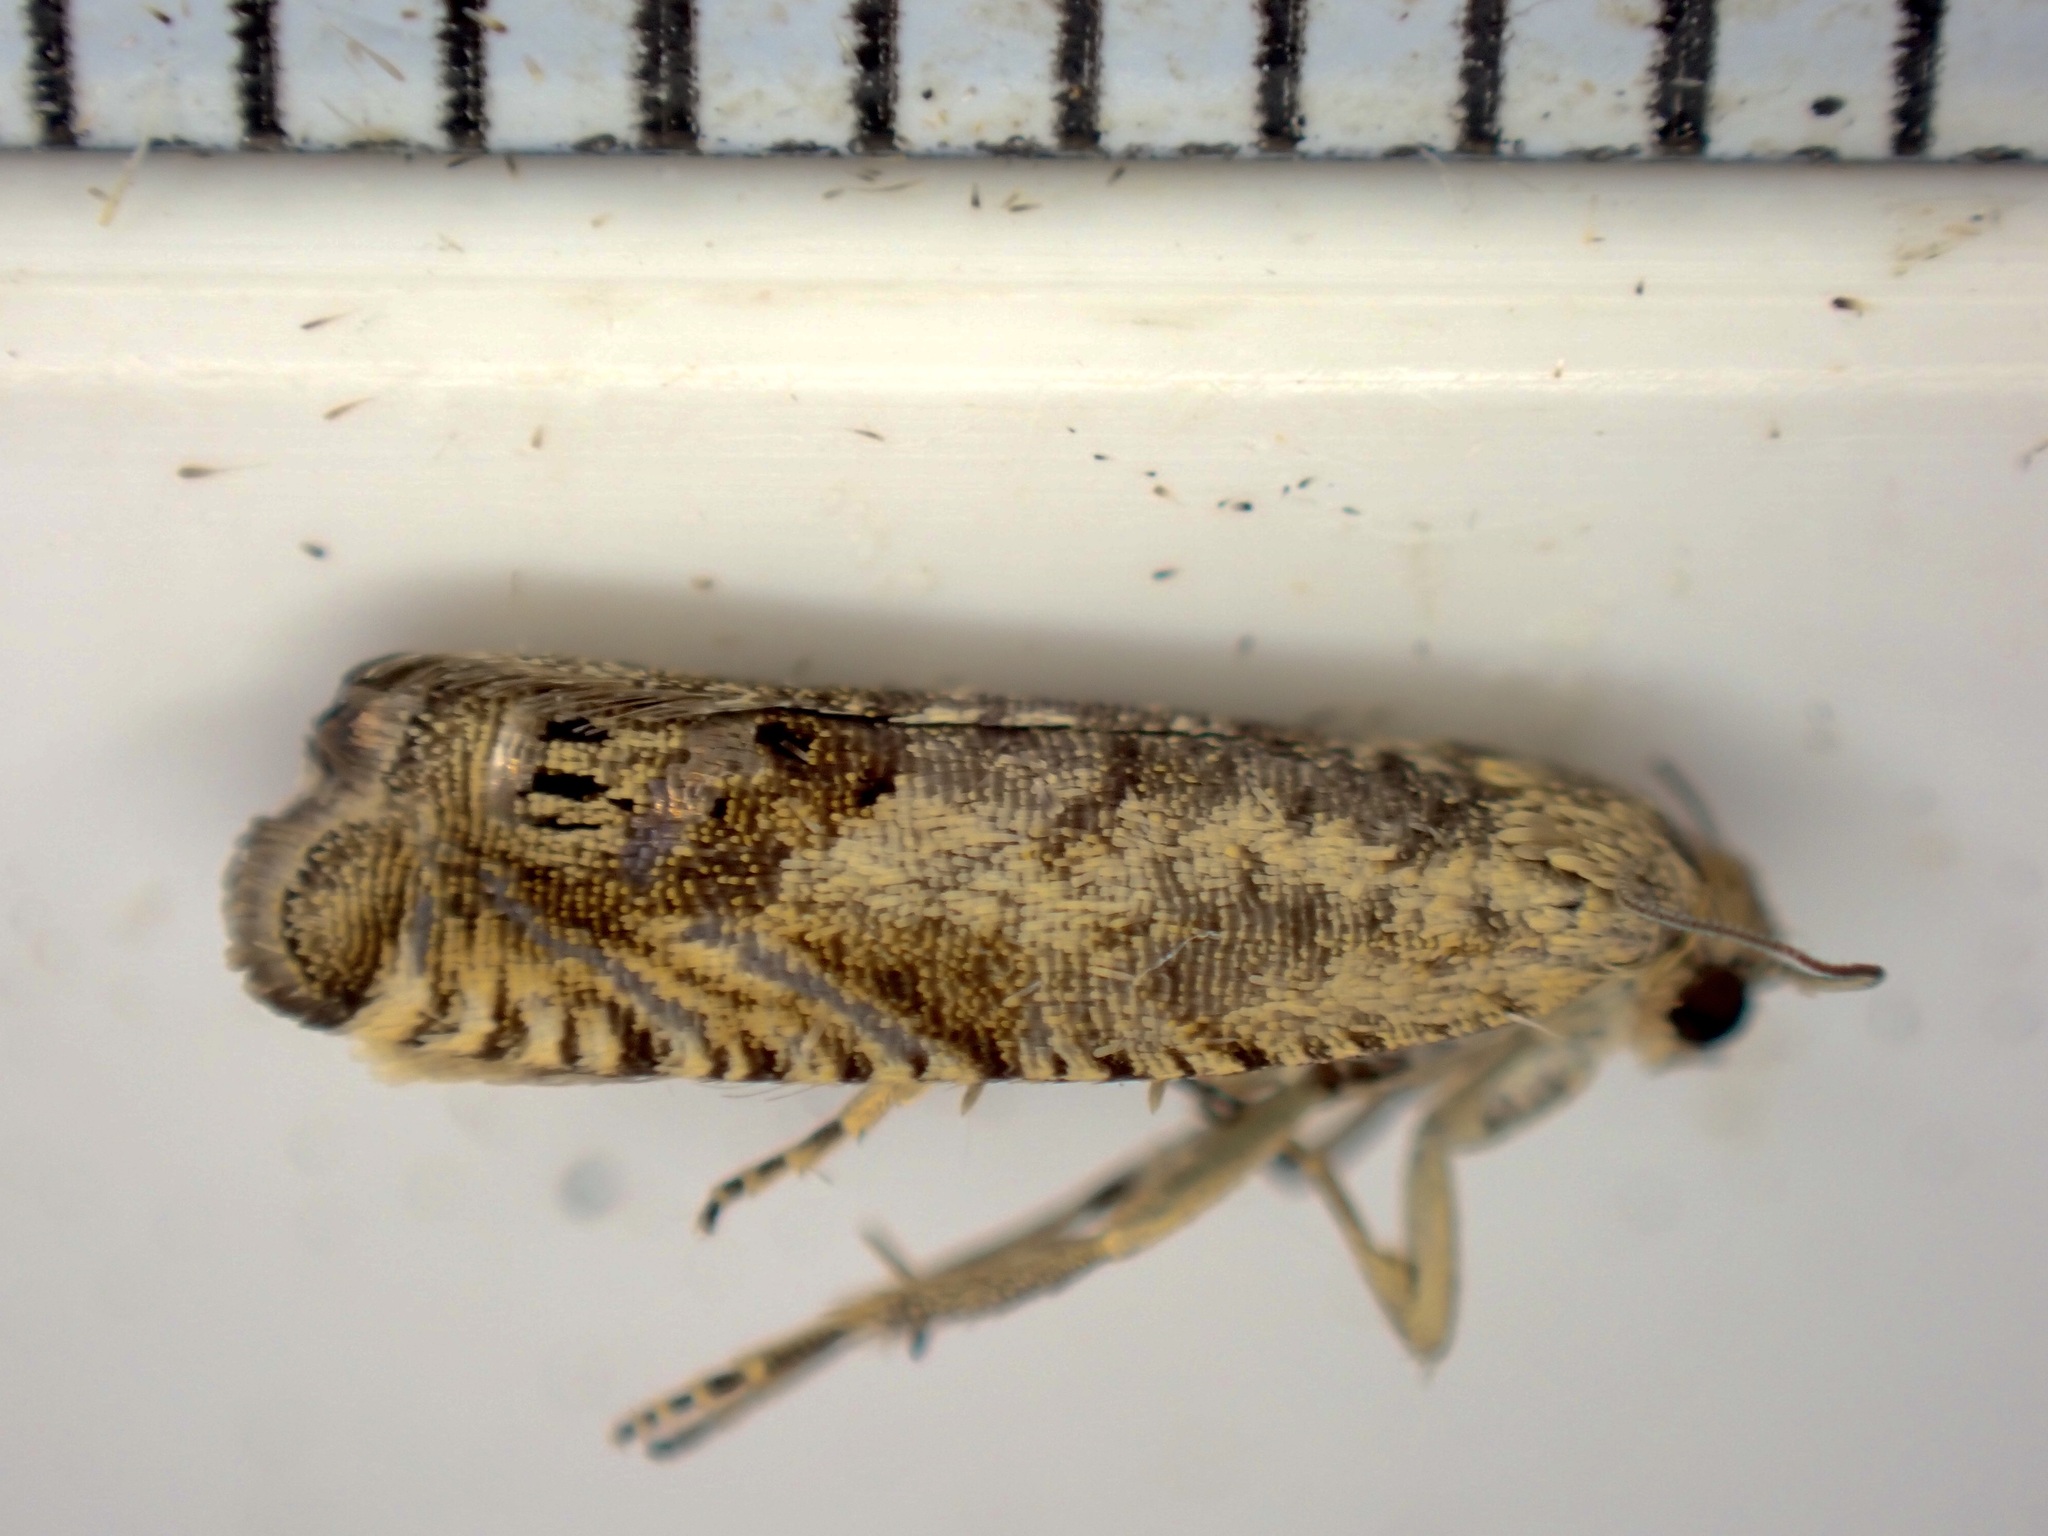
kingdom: Animalia
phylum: Arthropoda
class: Insecta
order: Lepidoptera
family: Tortricidae
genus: Cydia
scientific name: Cydia succedana
